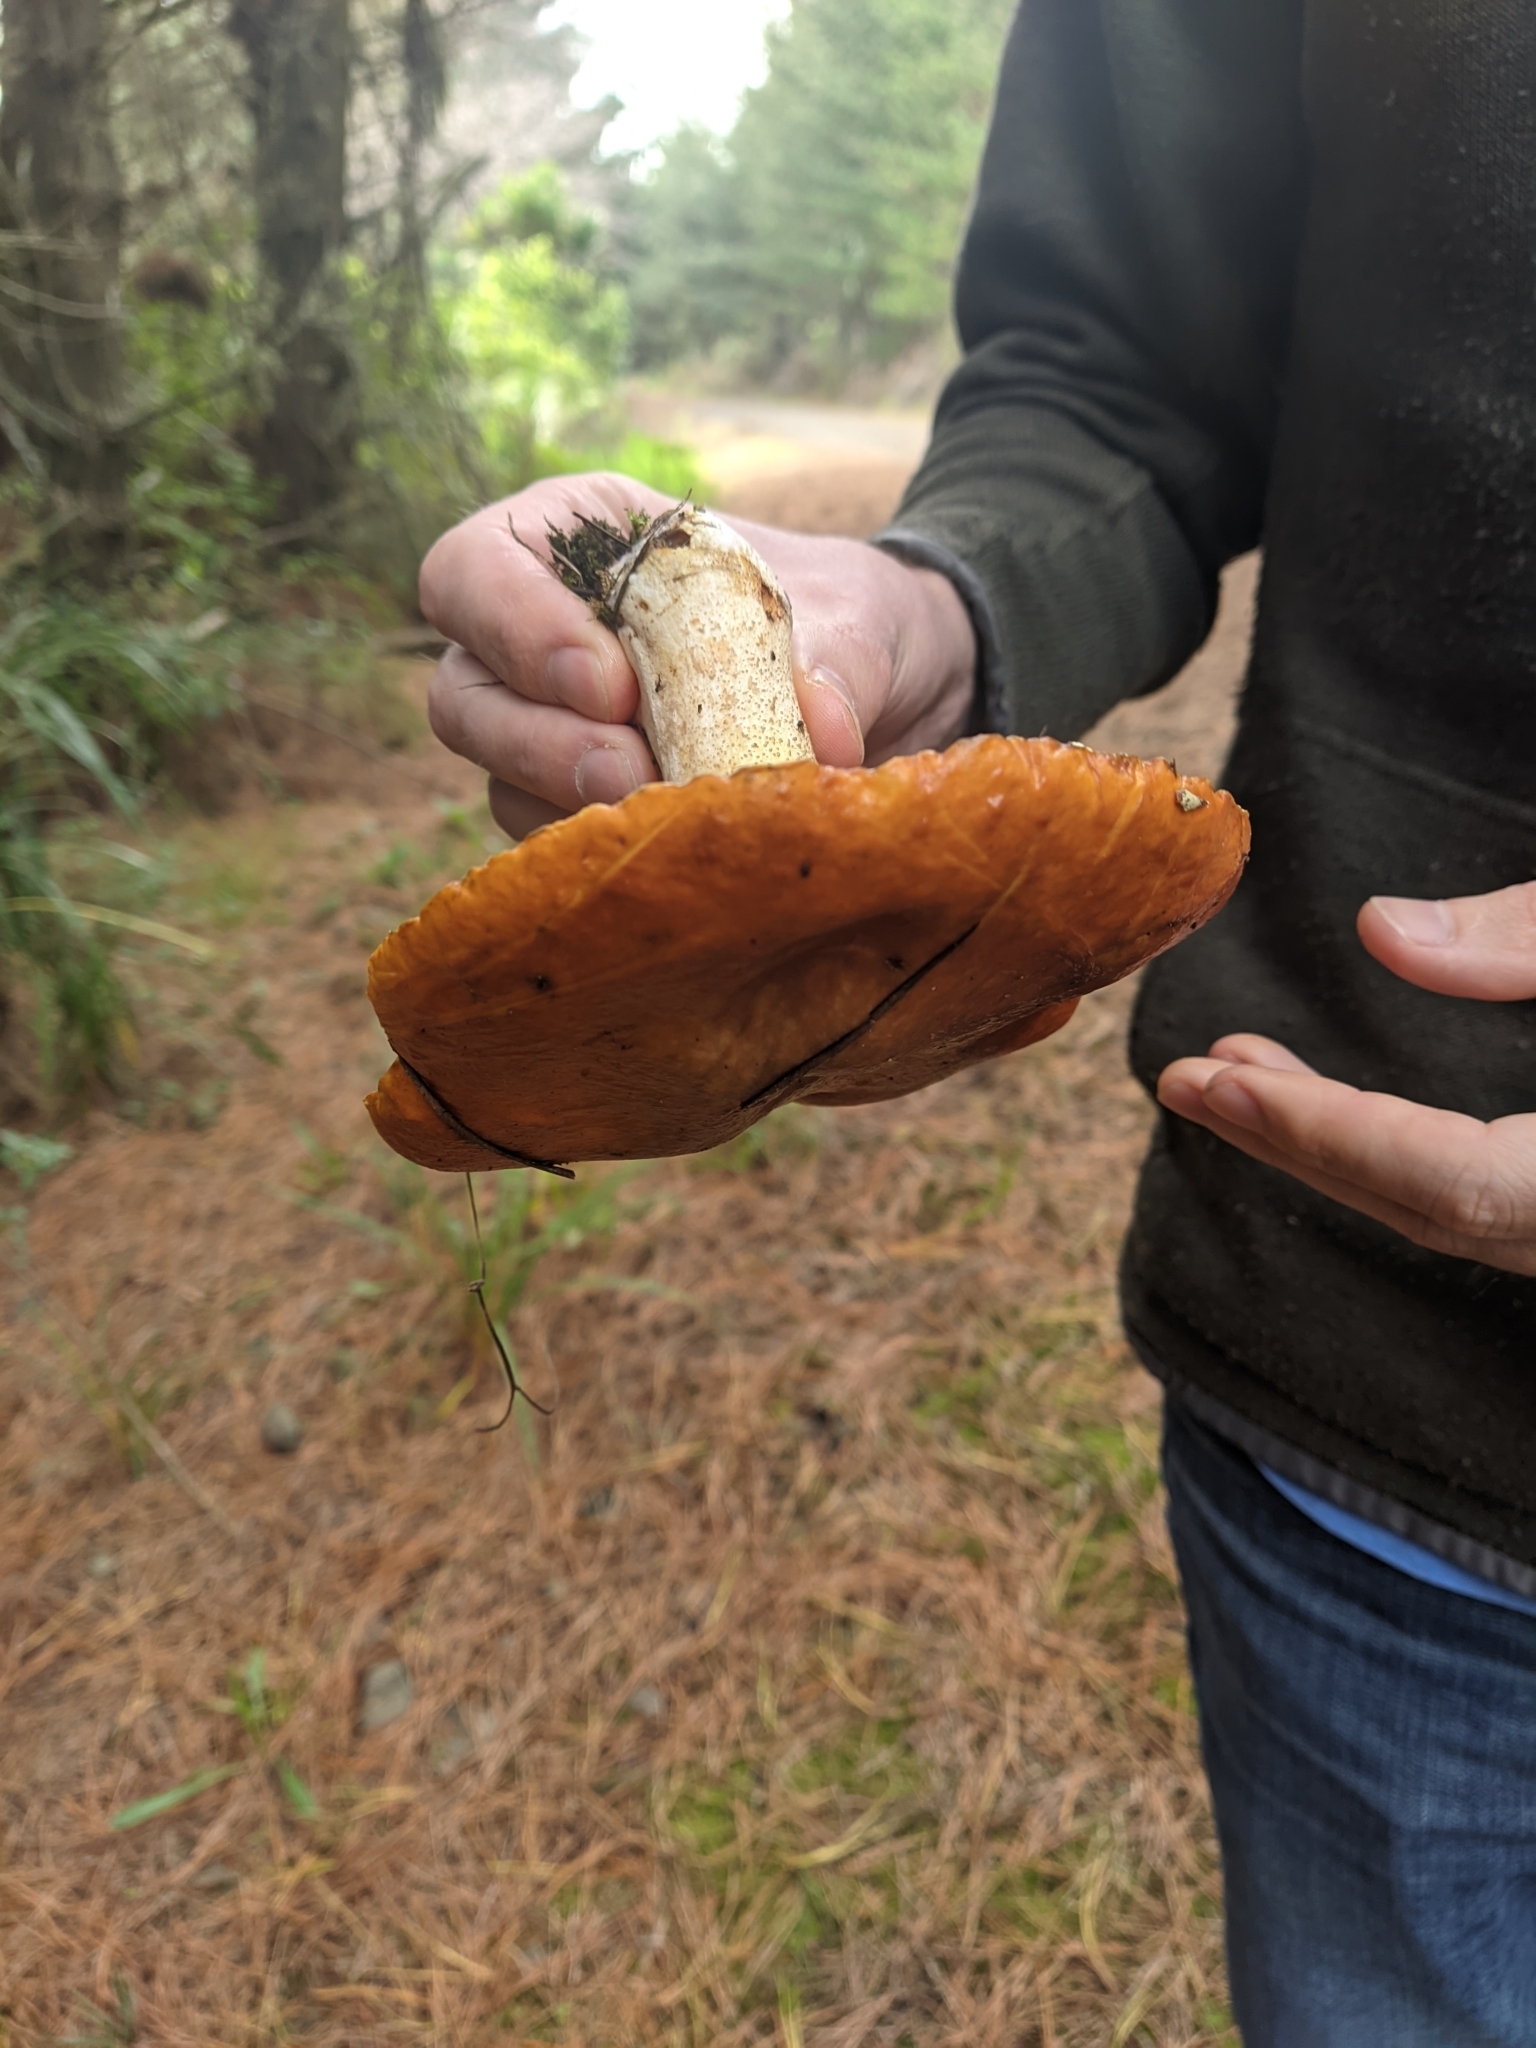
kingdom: Fungi
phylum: Basidiomycota
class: Agaricomycetes
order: Boletales
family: Suillaceae
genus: Suillus
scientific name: Suillus granulatus
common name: Weeping bolete
